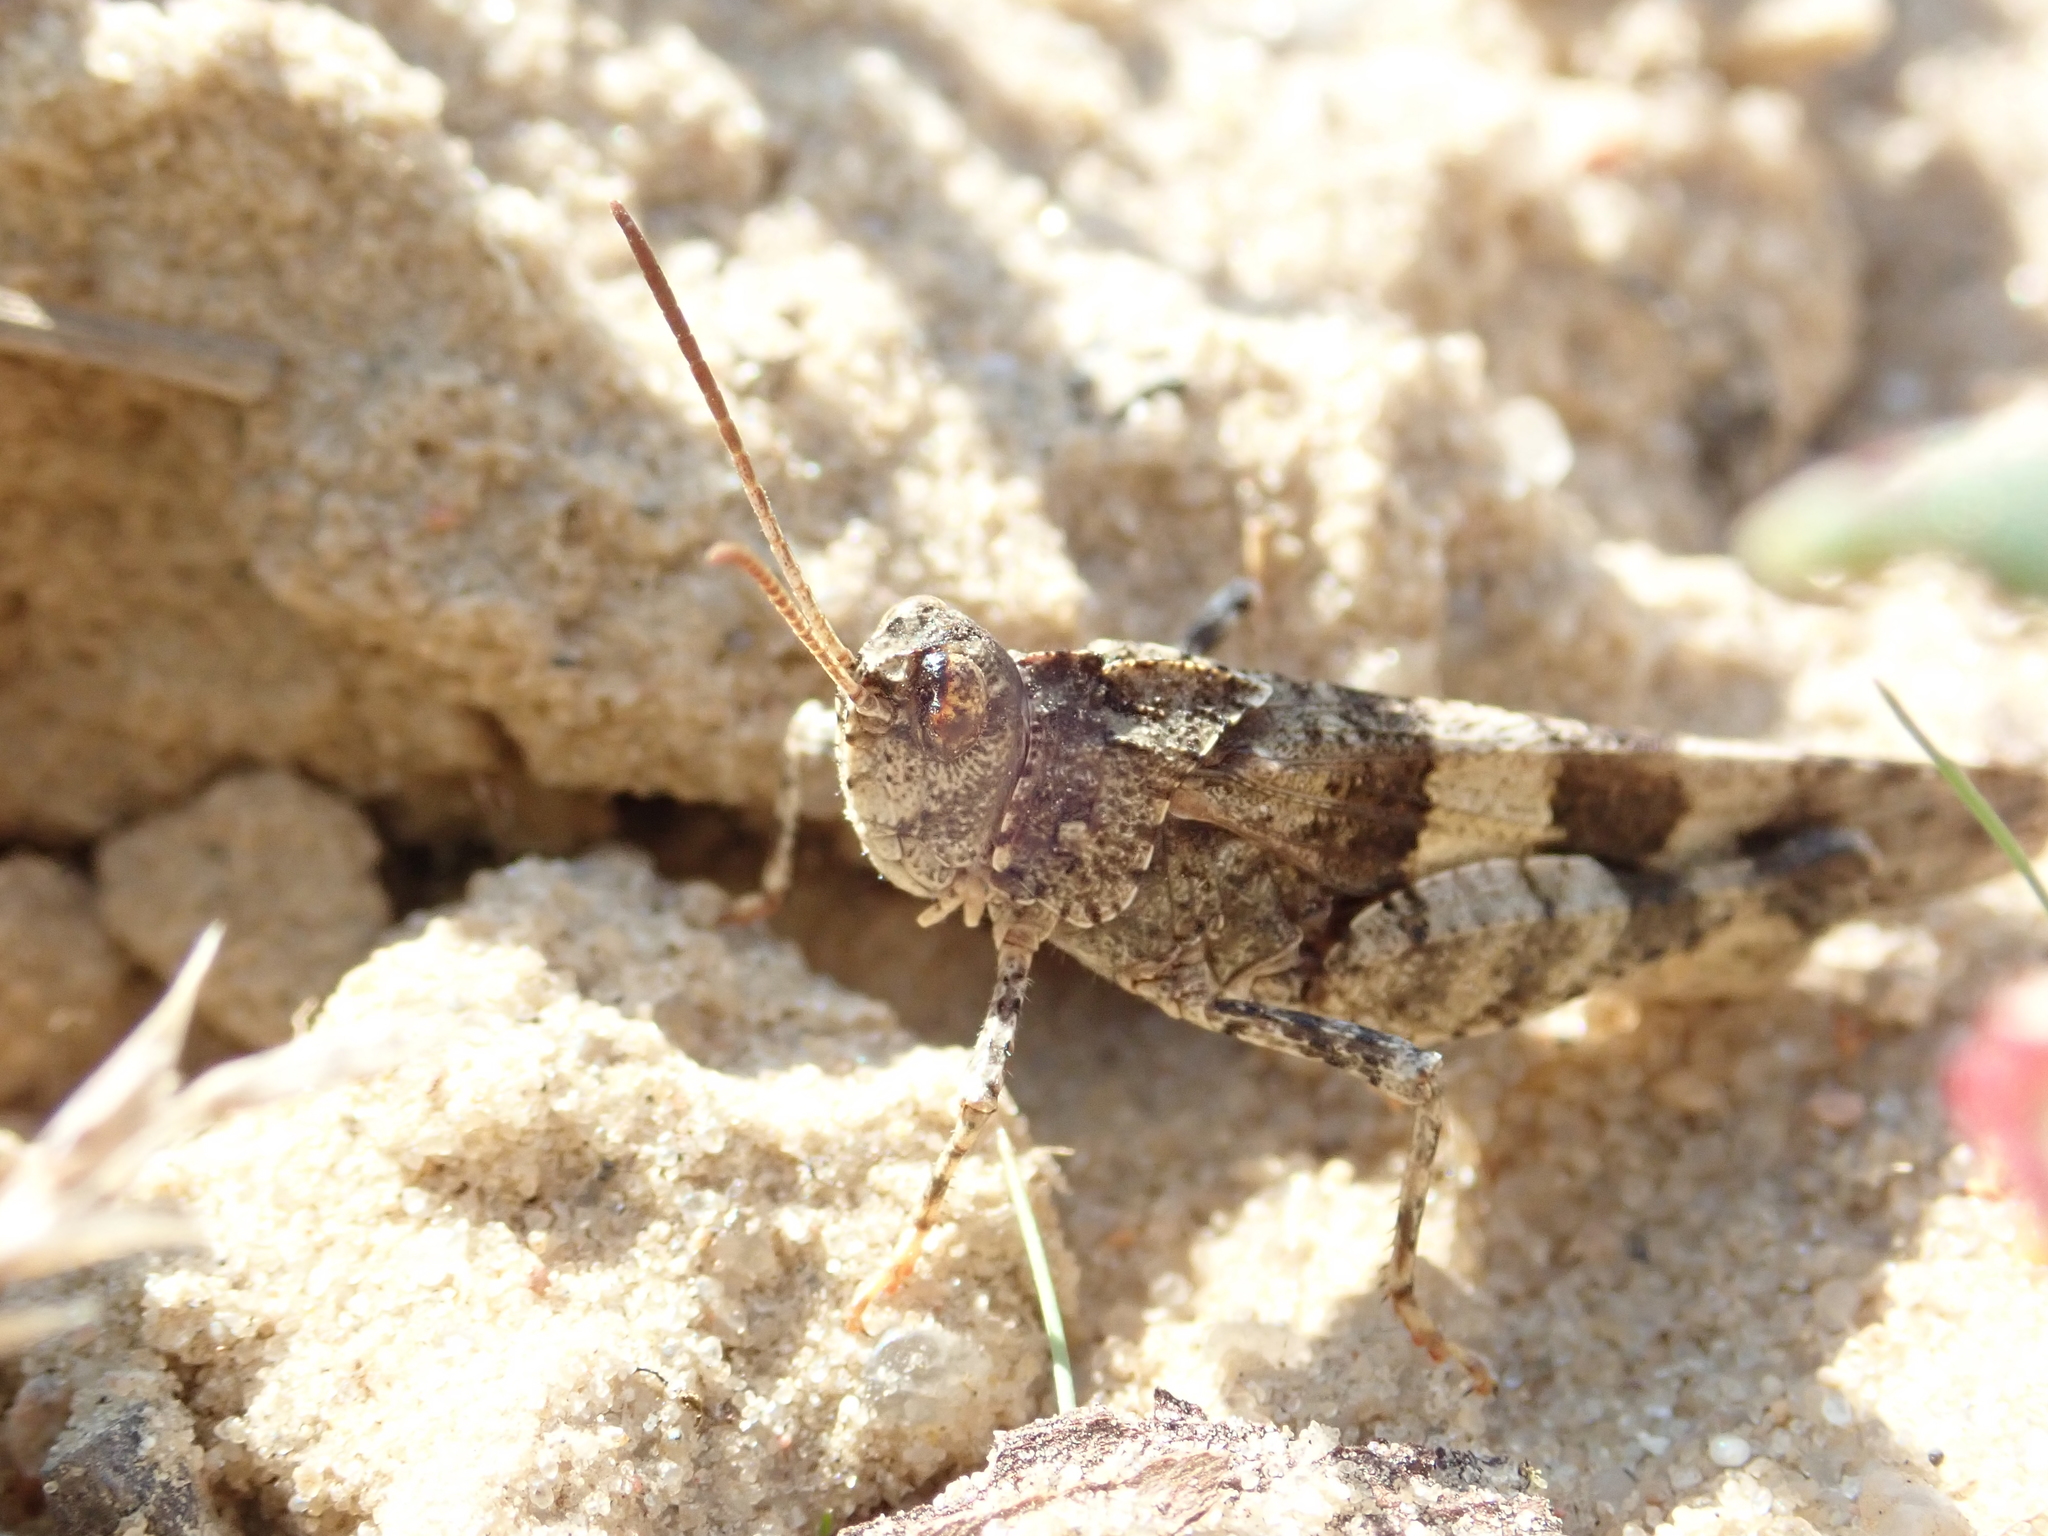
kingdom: Animalia
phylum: Arthropoda
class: Insecta
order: Orthoptera
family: Acrididae
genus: Oedipoda
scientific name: Oedipoda caerulescens
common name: Blue-winged grasshopper
